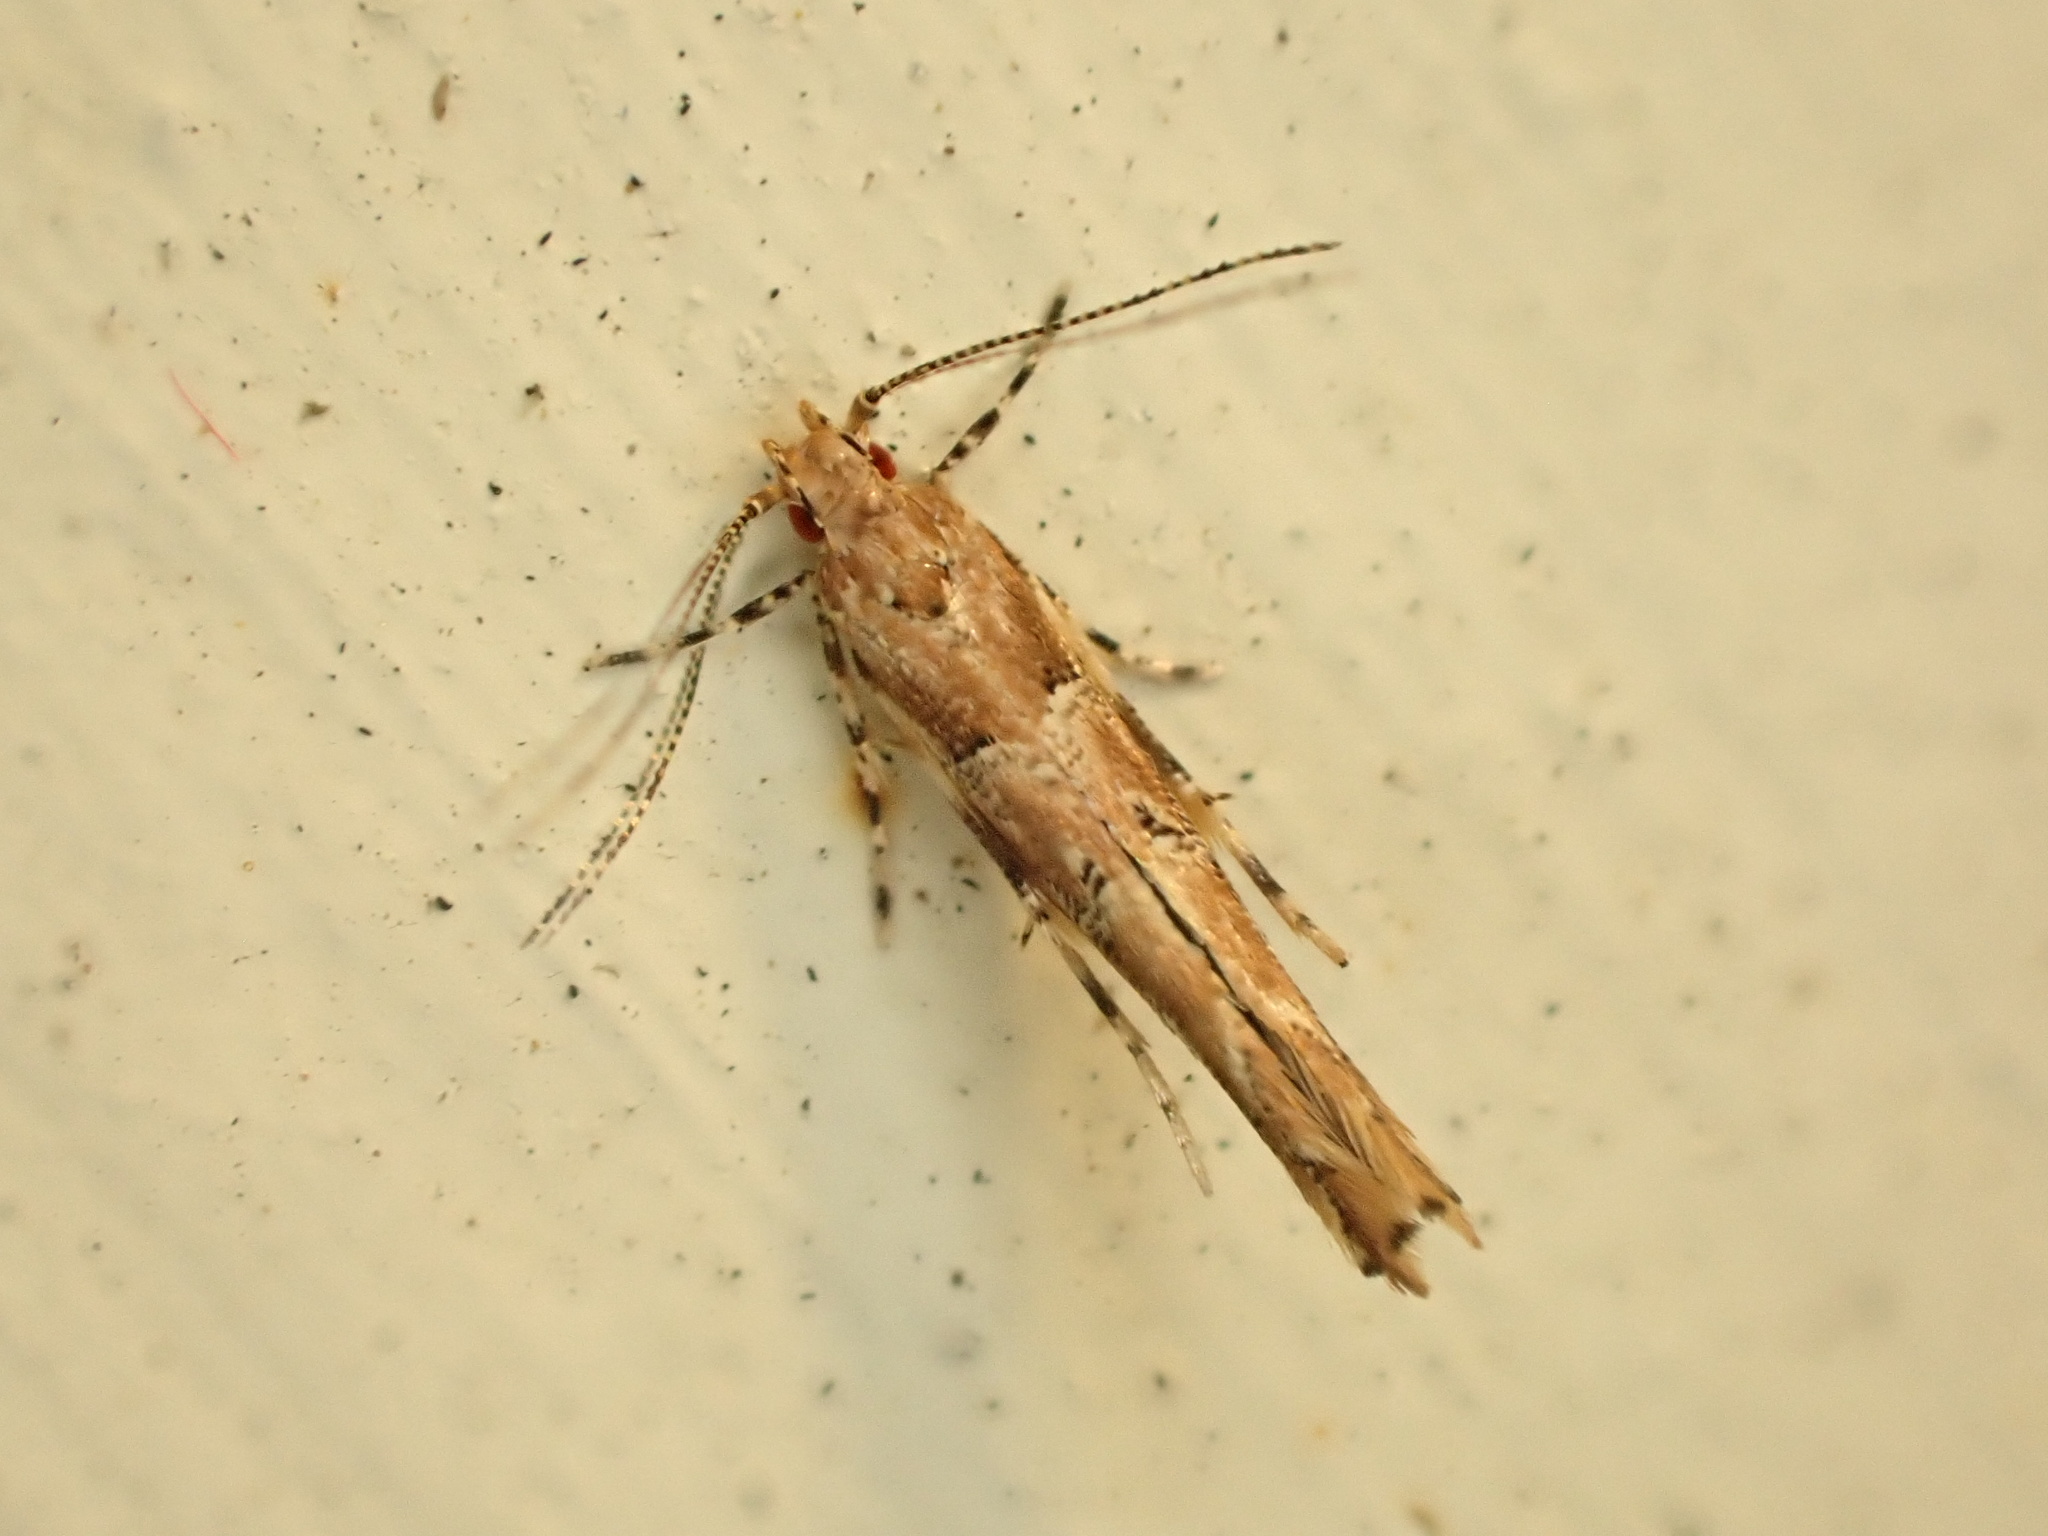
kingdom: Animalia
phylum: Arthropoda
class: Insecta
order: Lepidoptera
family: Cosmopterigidae
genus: Pyroderces
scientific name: Pyroderces aellotricha
